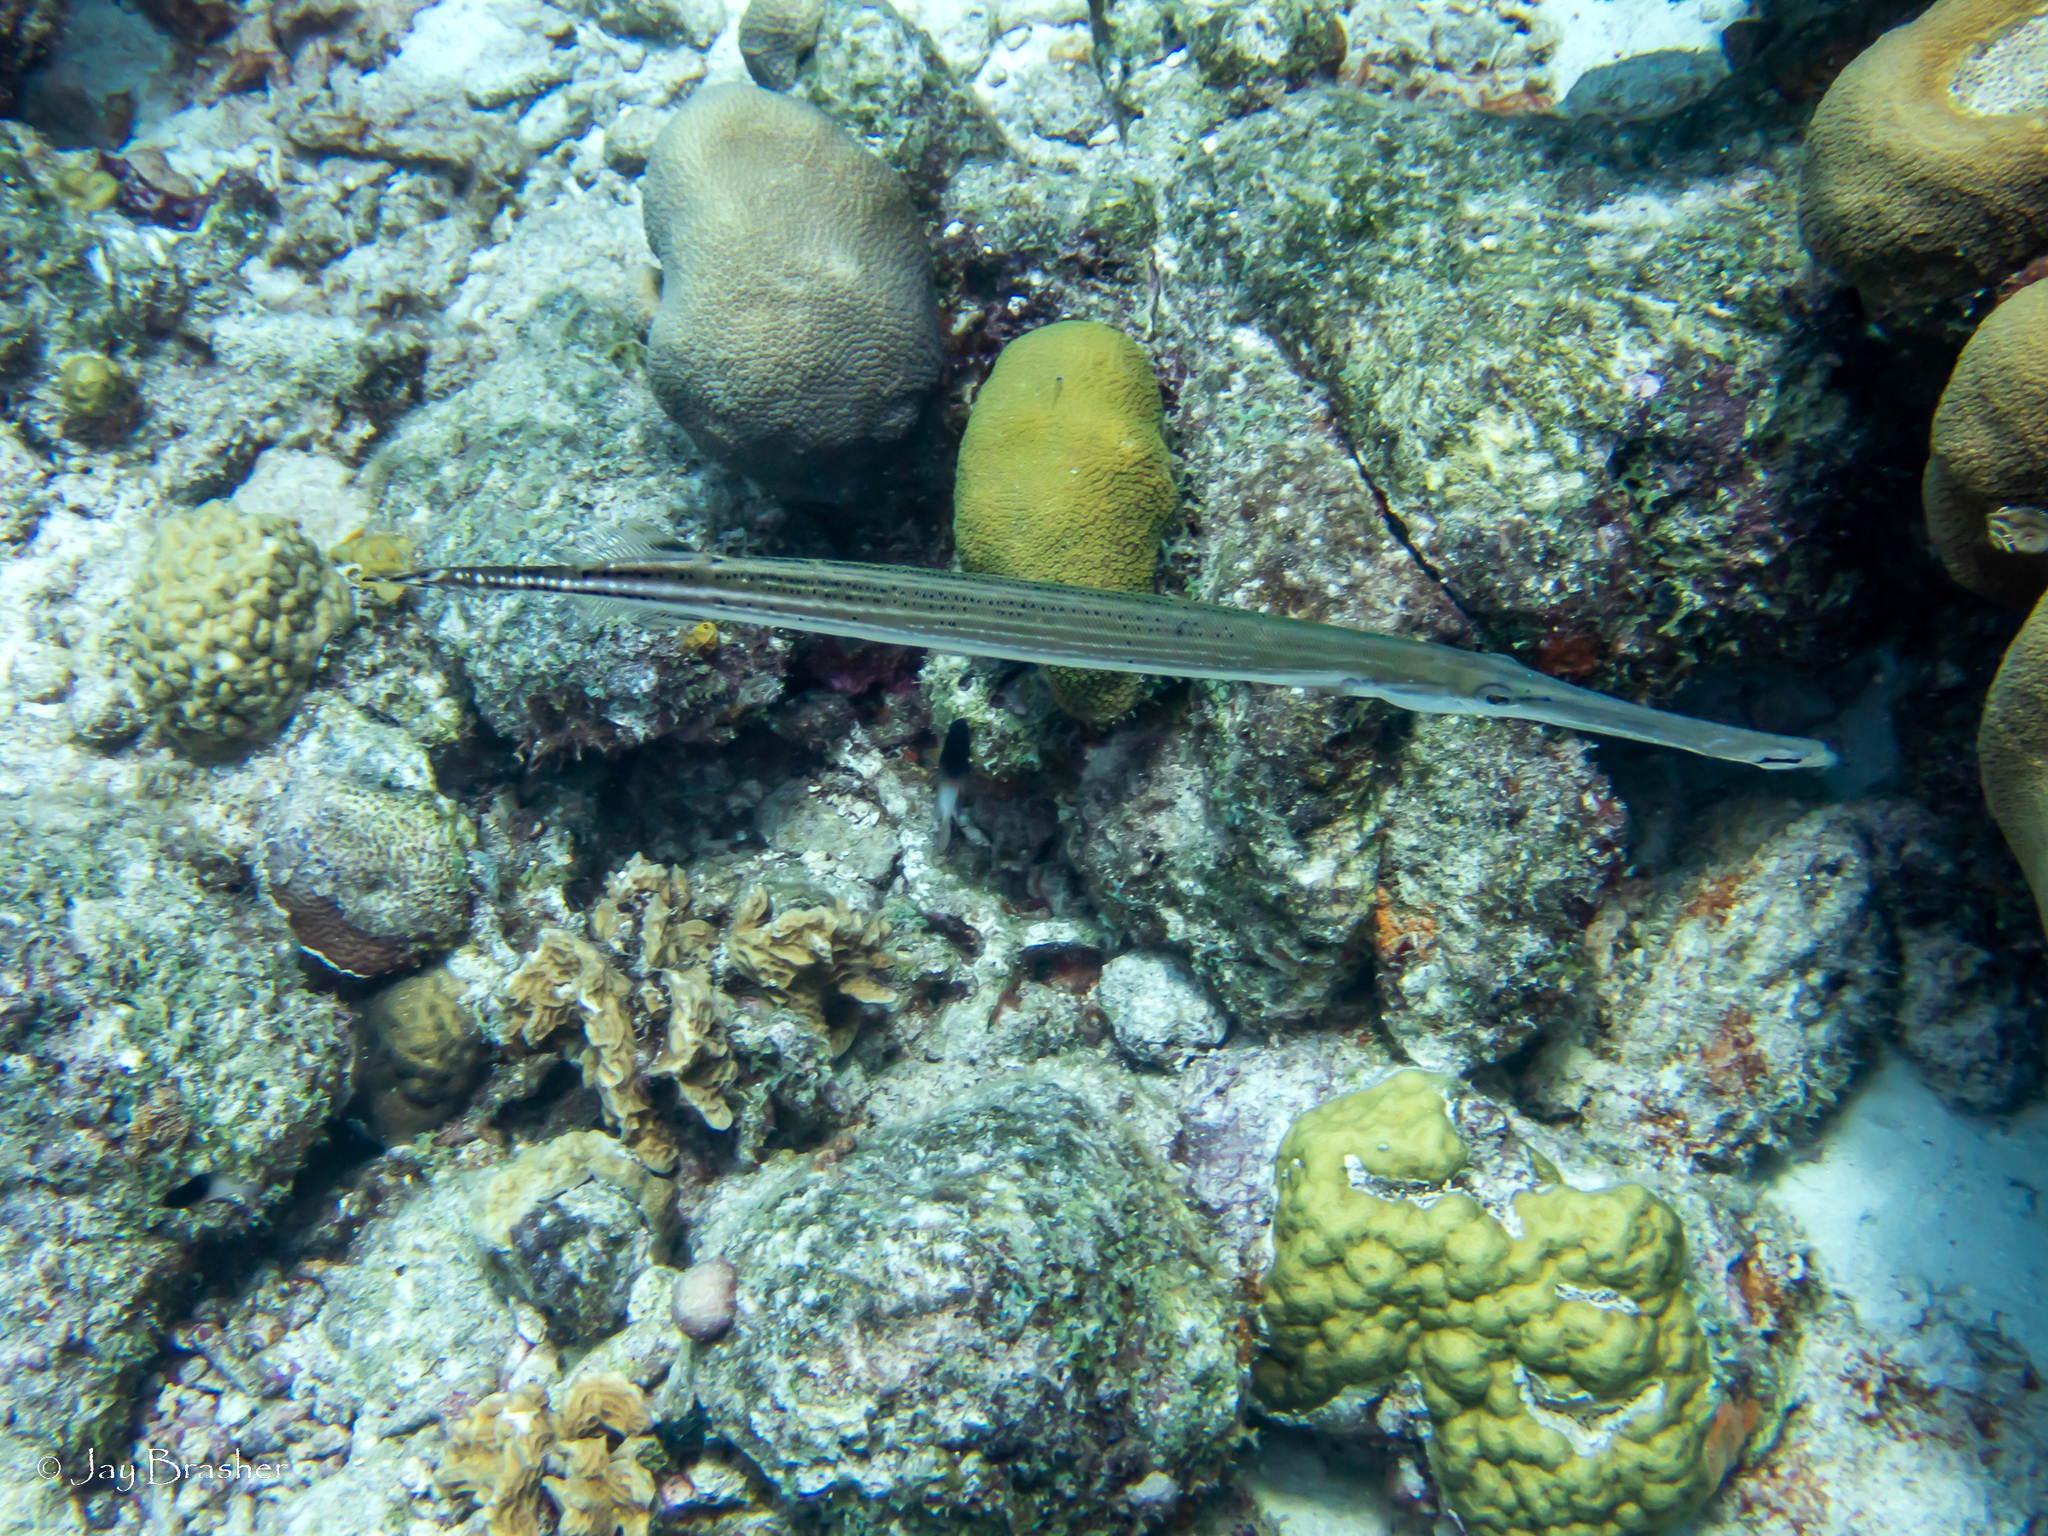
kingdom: Animalia
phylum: Chordata
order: Syngnathiformes
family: Aulostomidae
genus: Aulostomus
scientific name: Aulostomus maculatus
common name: West atlantic trumpetfish
